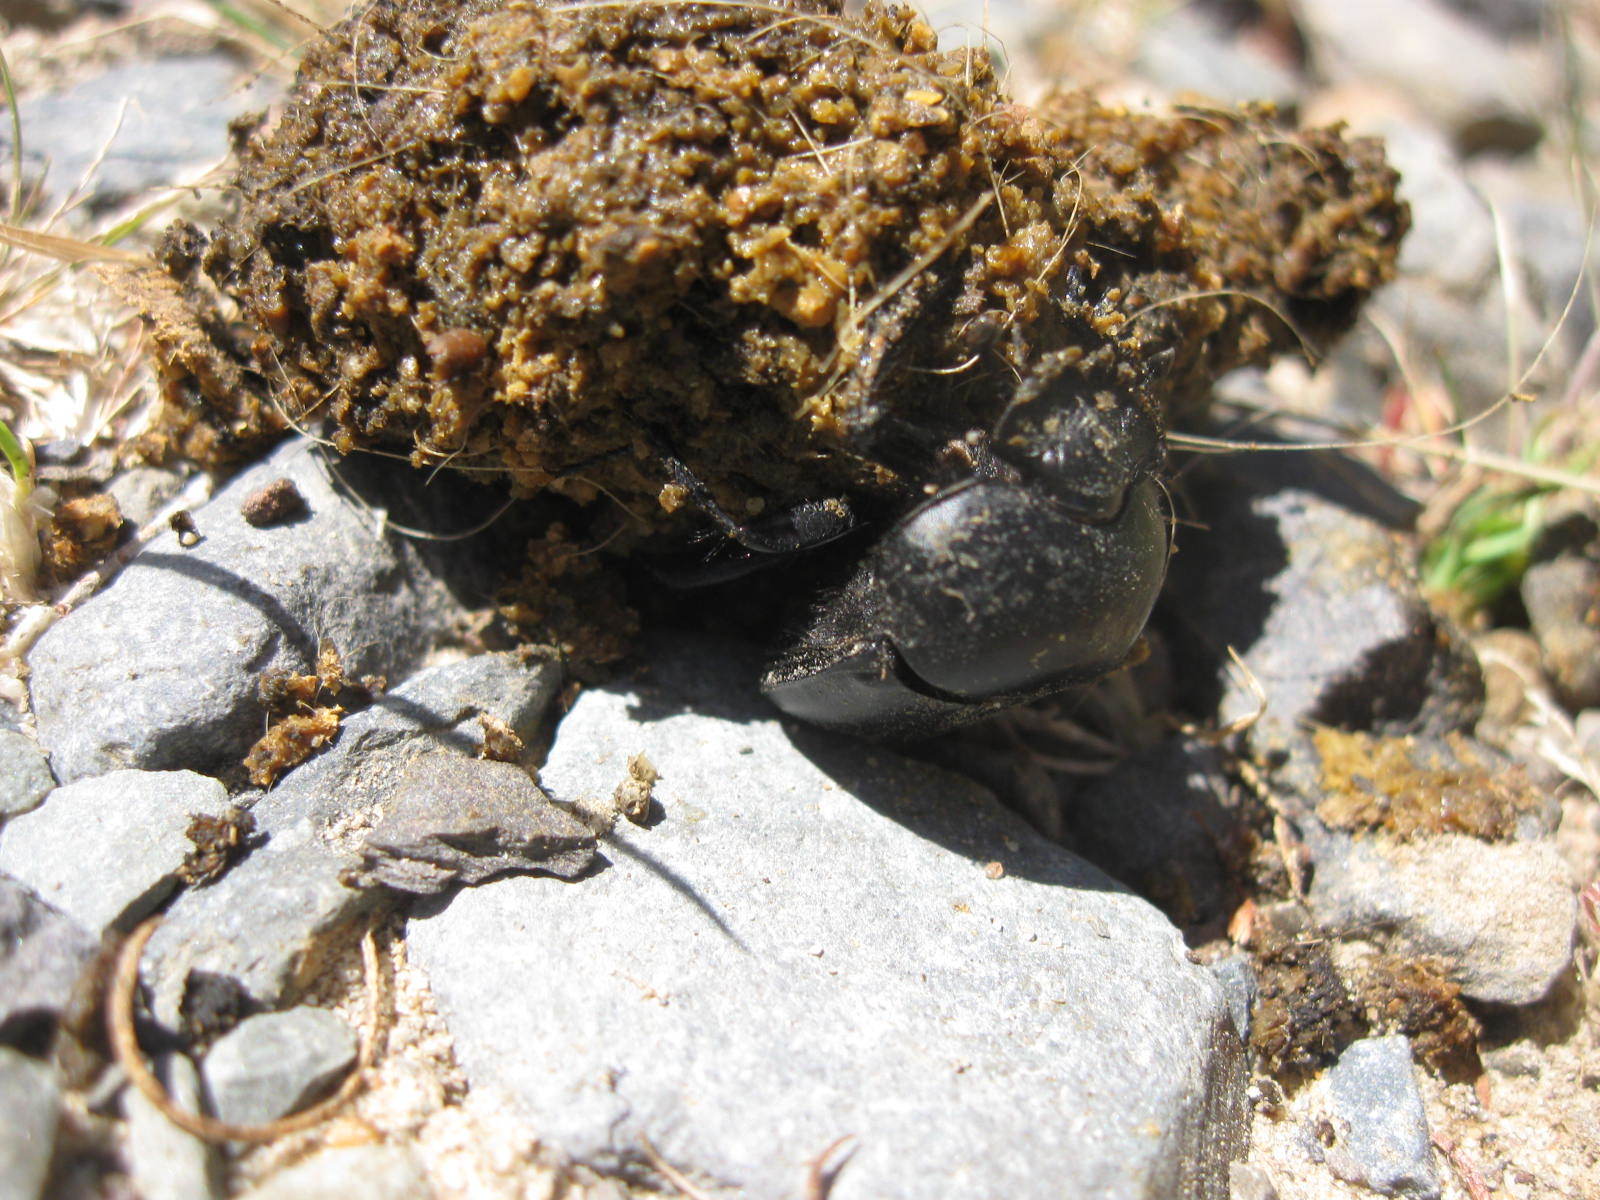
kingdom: Animalia
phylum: Arthropoda
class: Insecta
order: Coleoptera
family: Scarabaeidae
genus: Scarabaeus
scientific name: Scarabaeus convexus
